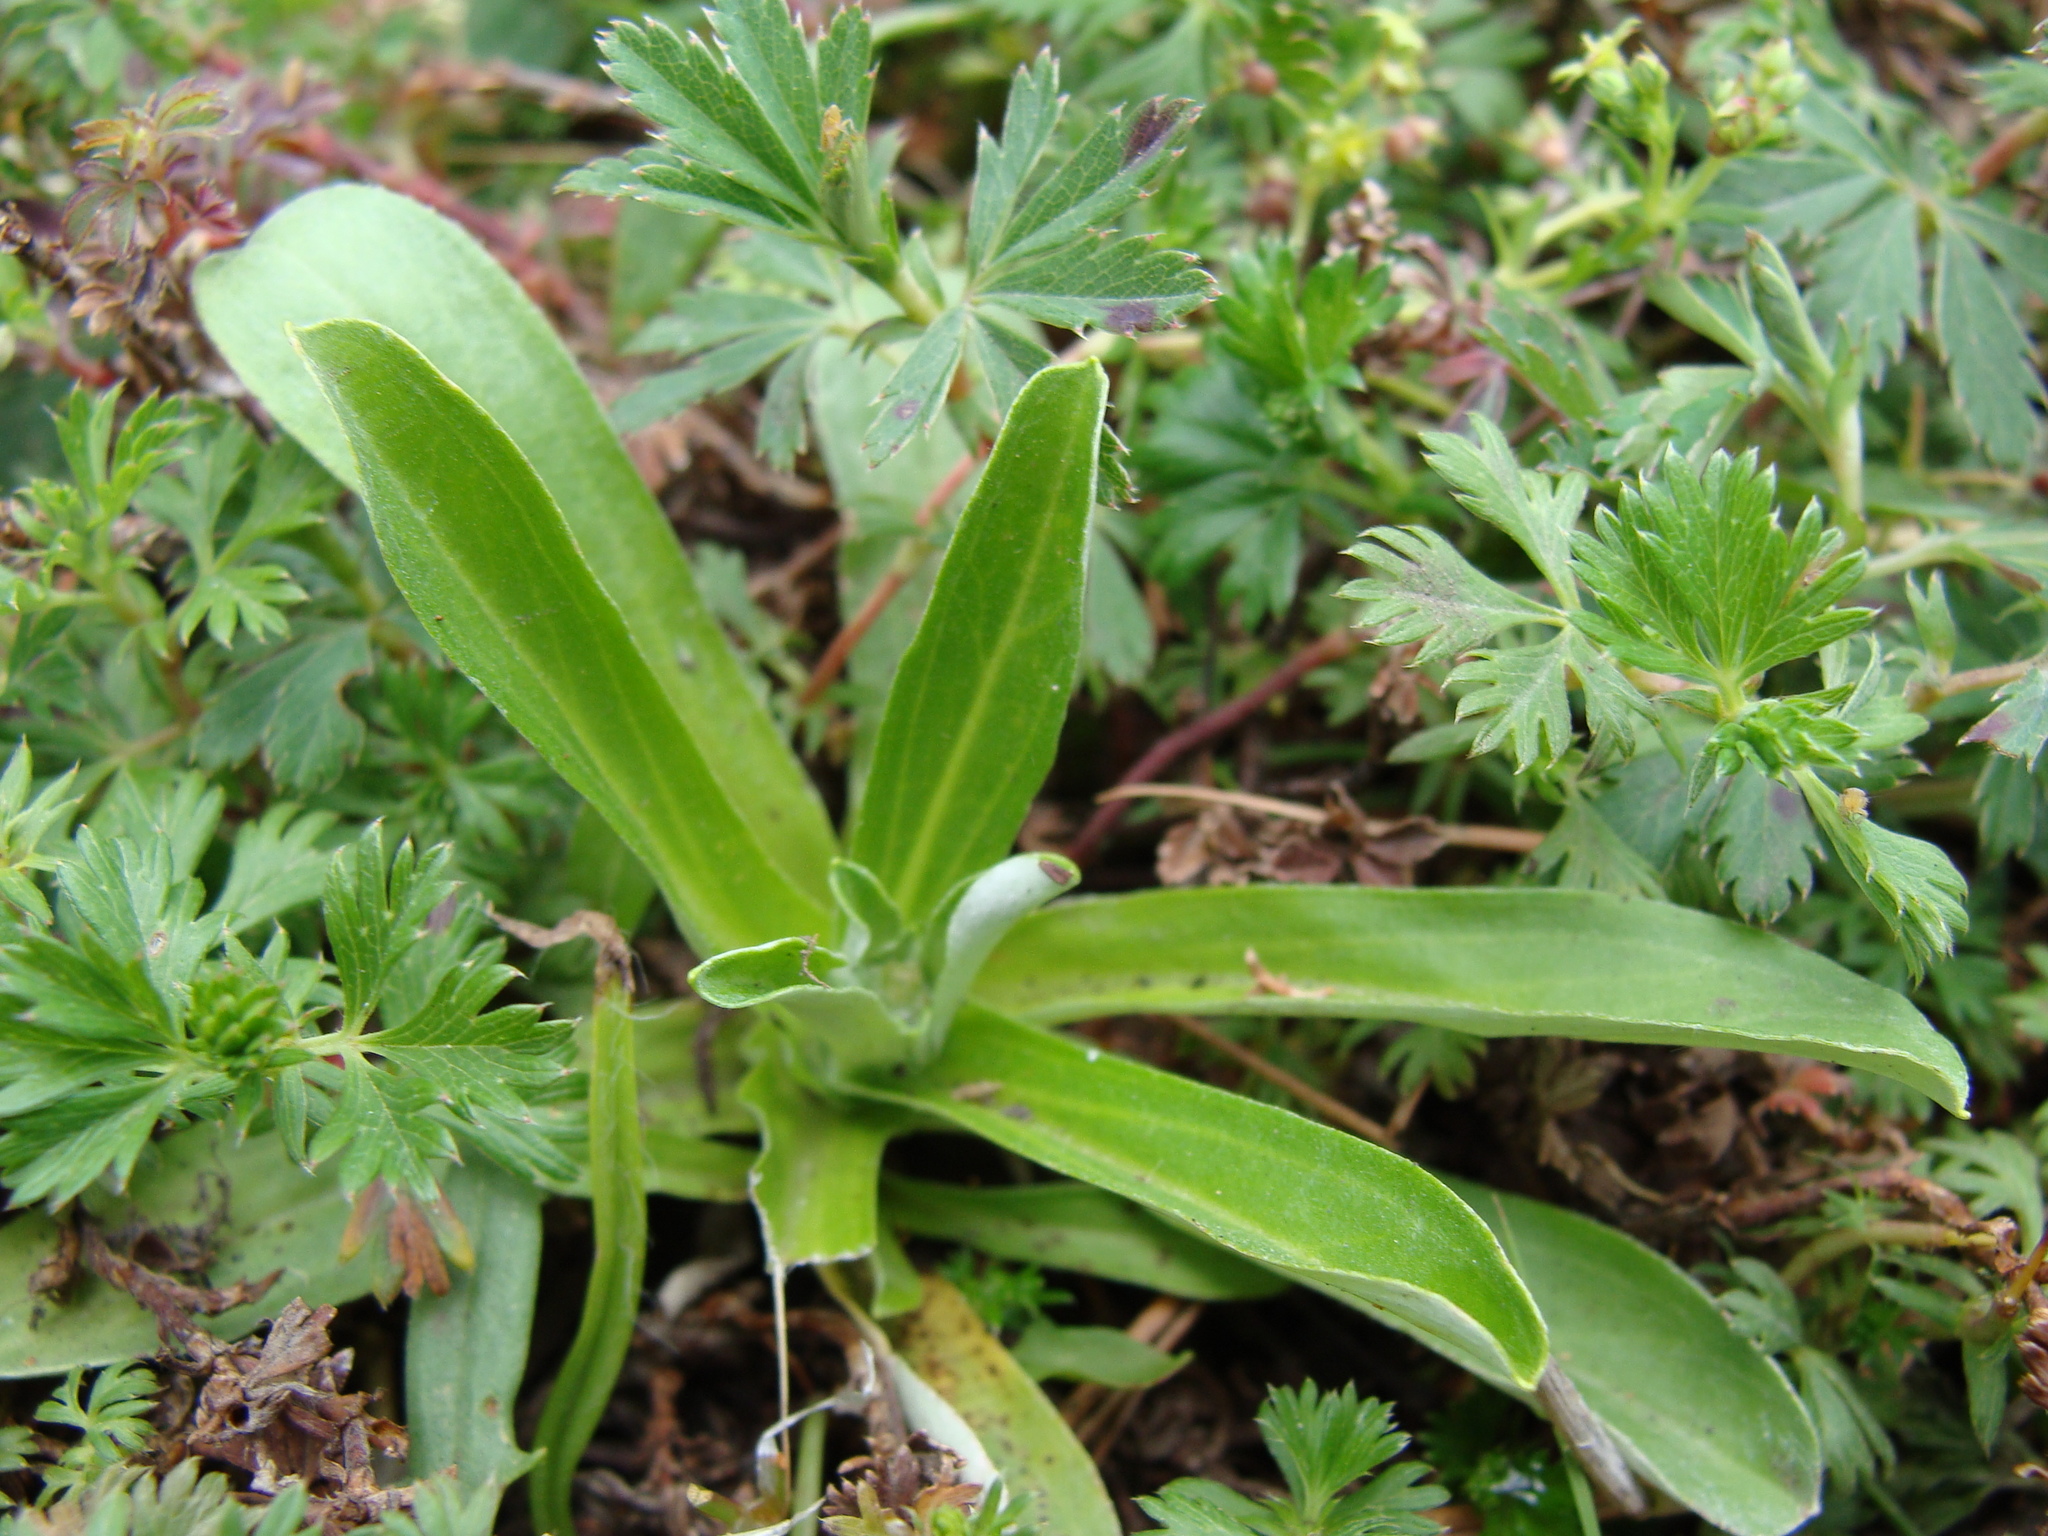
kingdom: Plantae
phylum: Tracheophyta
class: Magnoliopsida
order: Asterales
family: Asteraceae
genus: Gamochaeta
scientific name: Gamochaeta purpurea
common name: Purple cudweed
